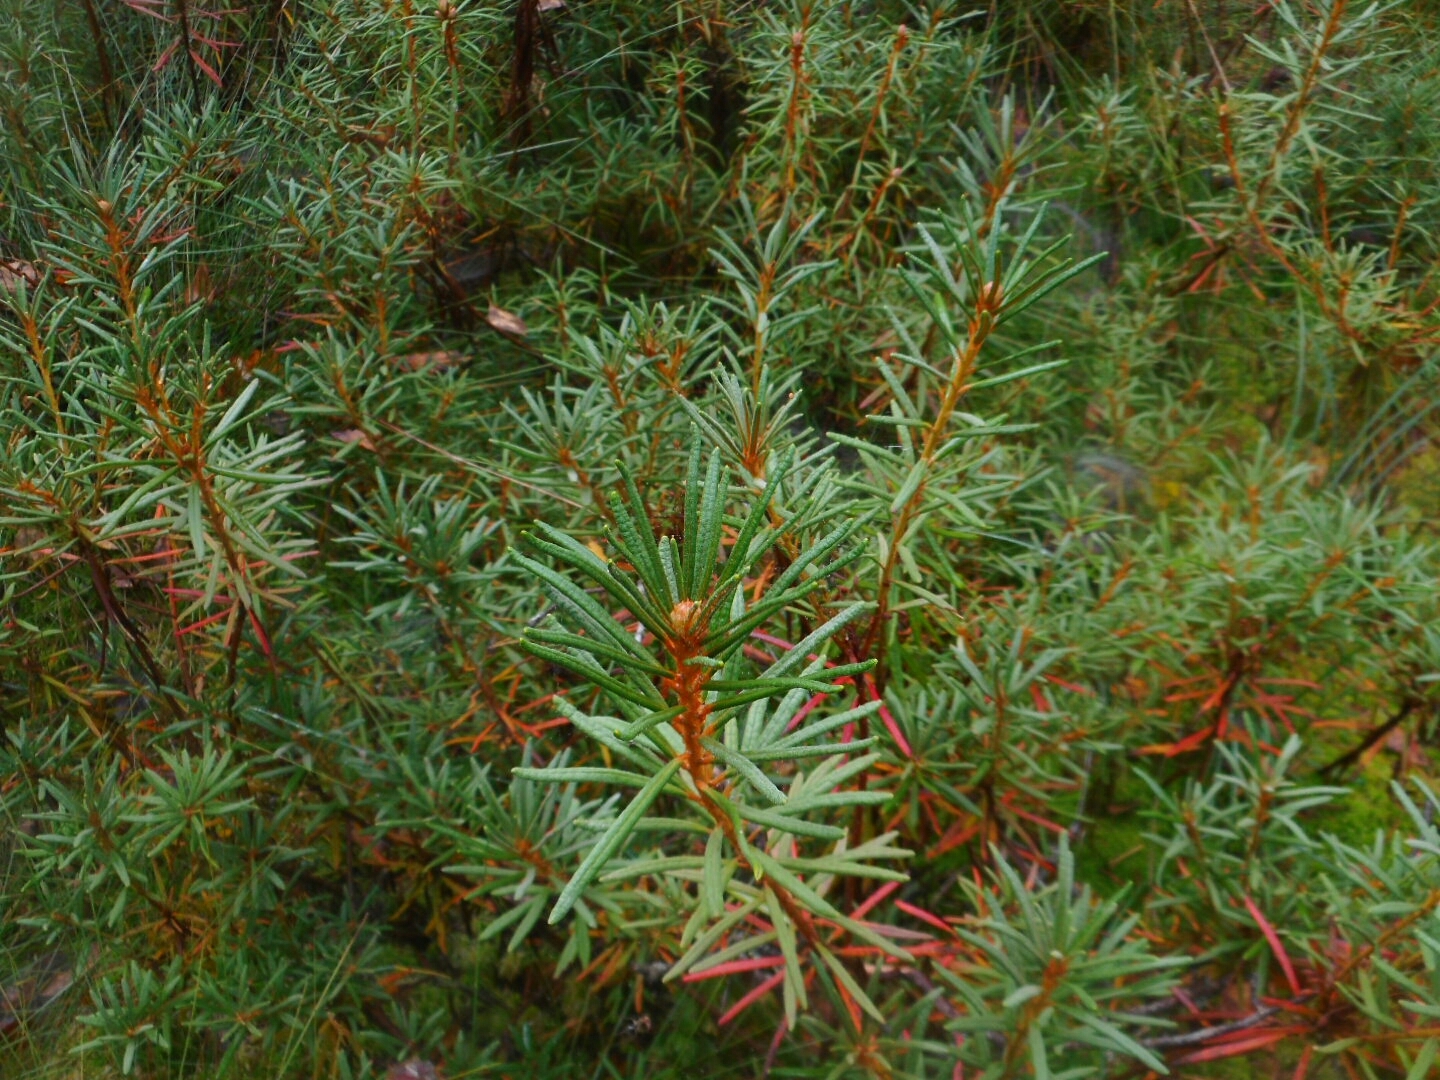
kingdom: Plantae
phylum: Tracheophyta
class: Magnoliopsida
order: Ericales
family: Ericaceae
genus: Rhododendron
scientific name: Rhododendron tomentosum
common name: Marsh labrador tea
